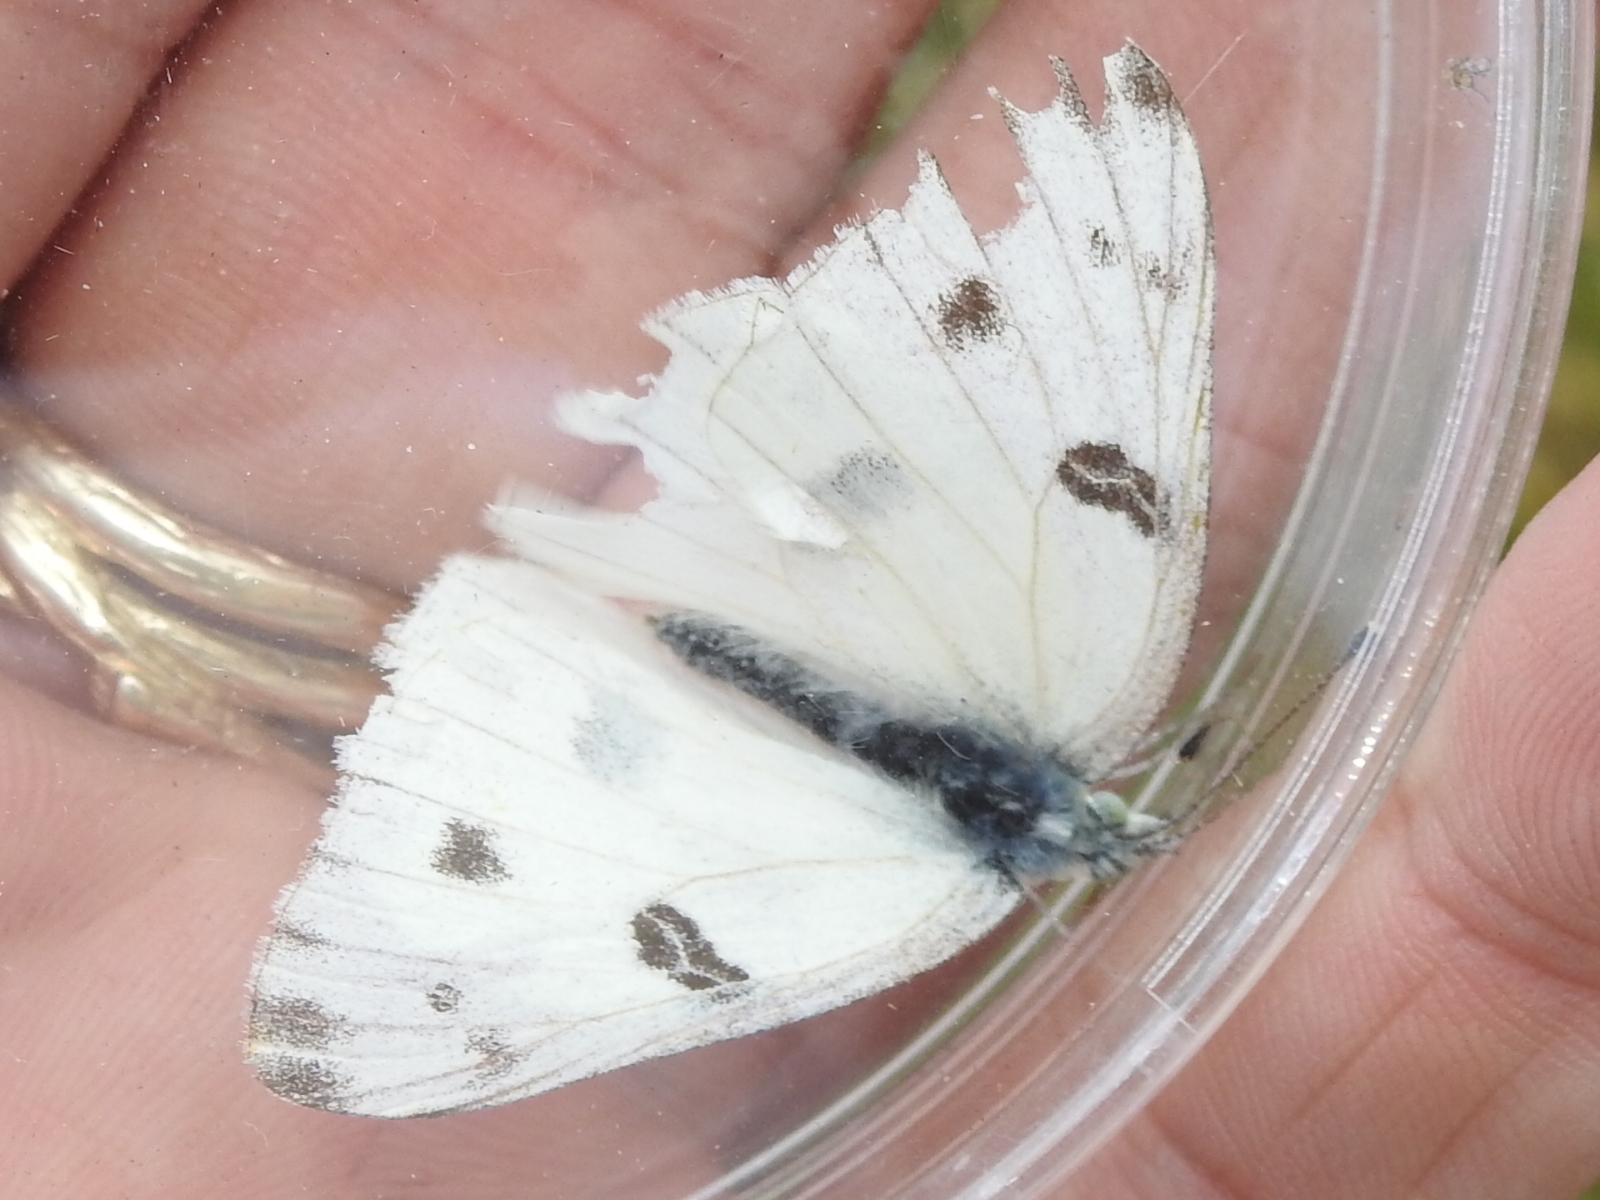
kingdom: Animalia
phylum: Arthropoda
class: Insecta
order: Lepidoptera
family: Pieridae
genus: Pontia
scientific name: Pontia protodice
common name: Checkered white
